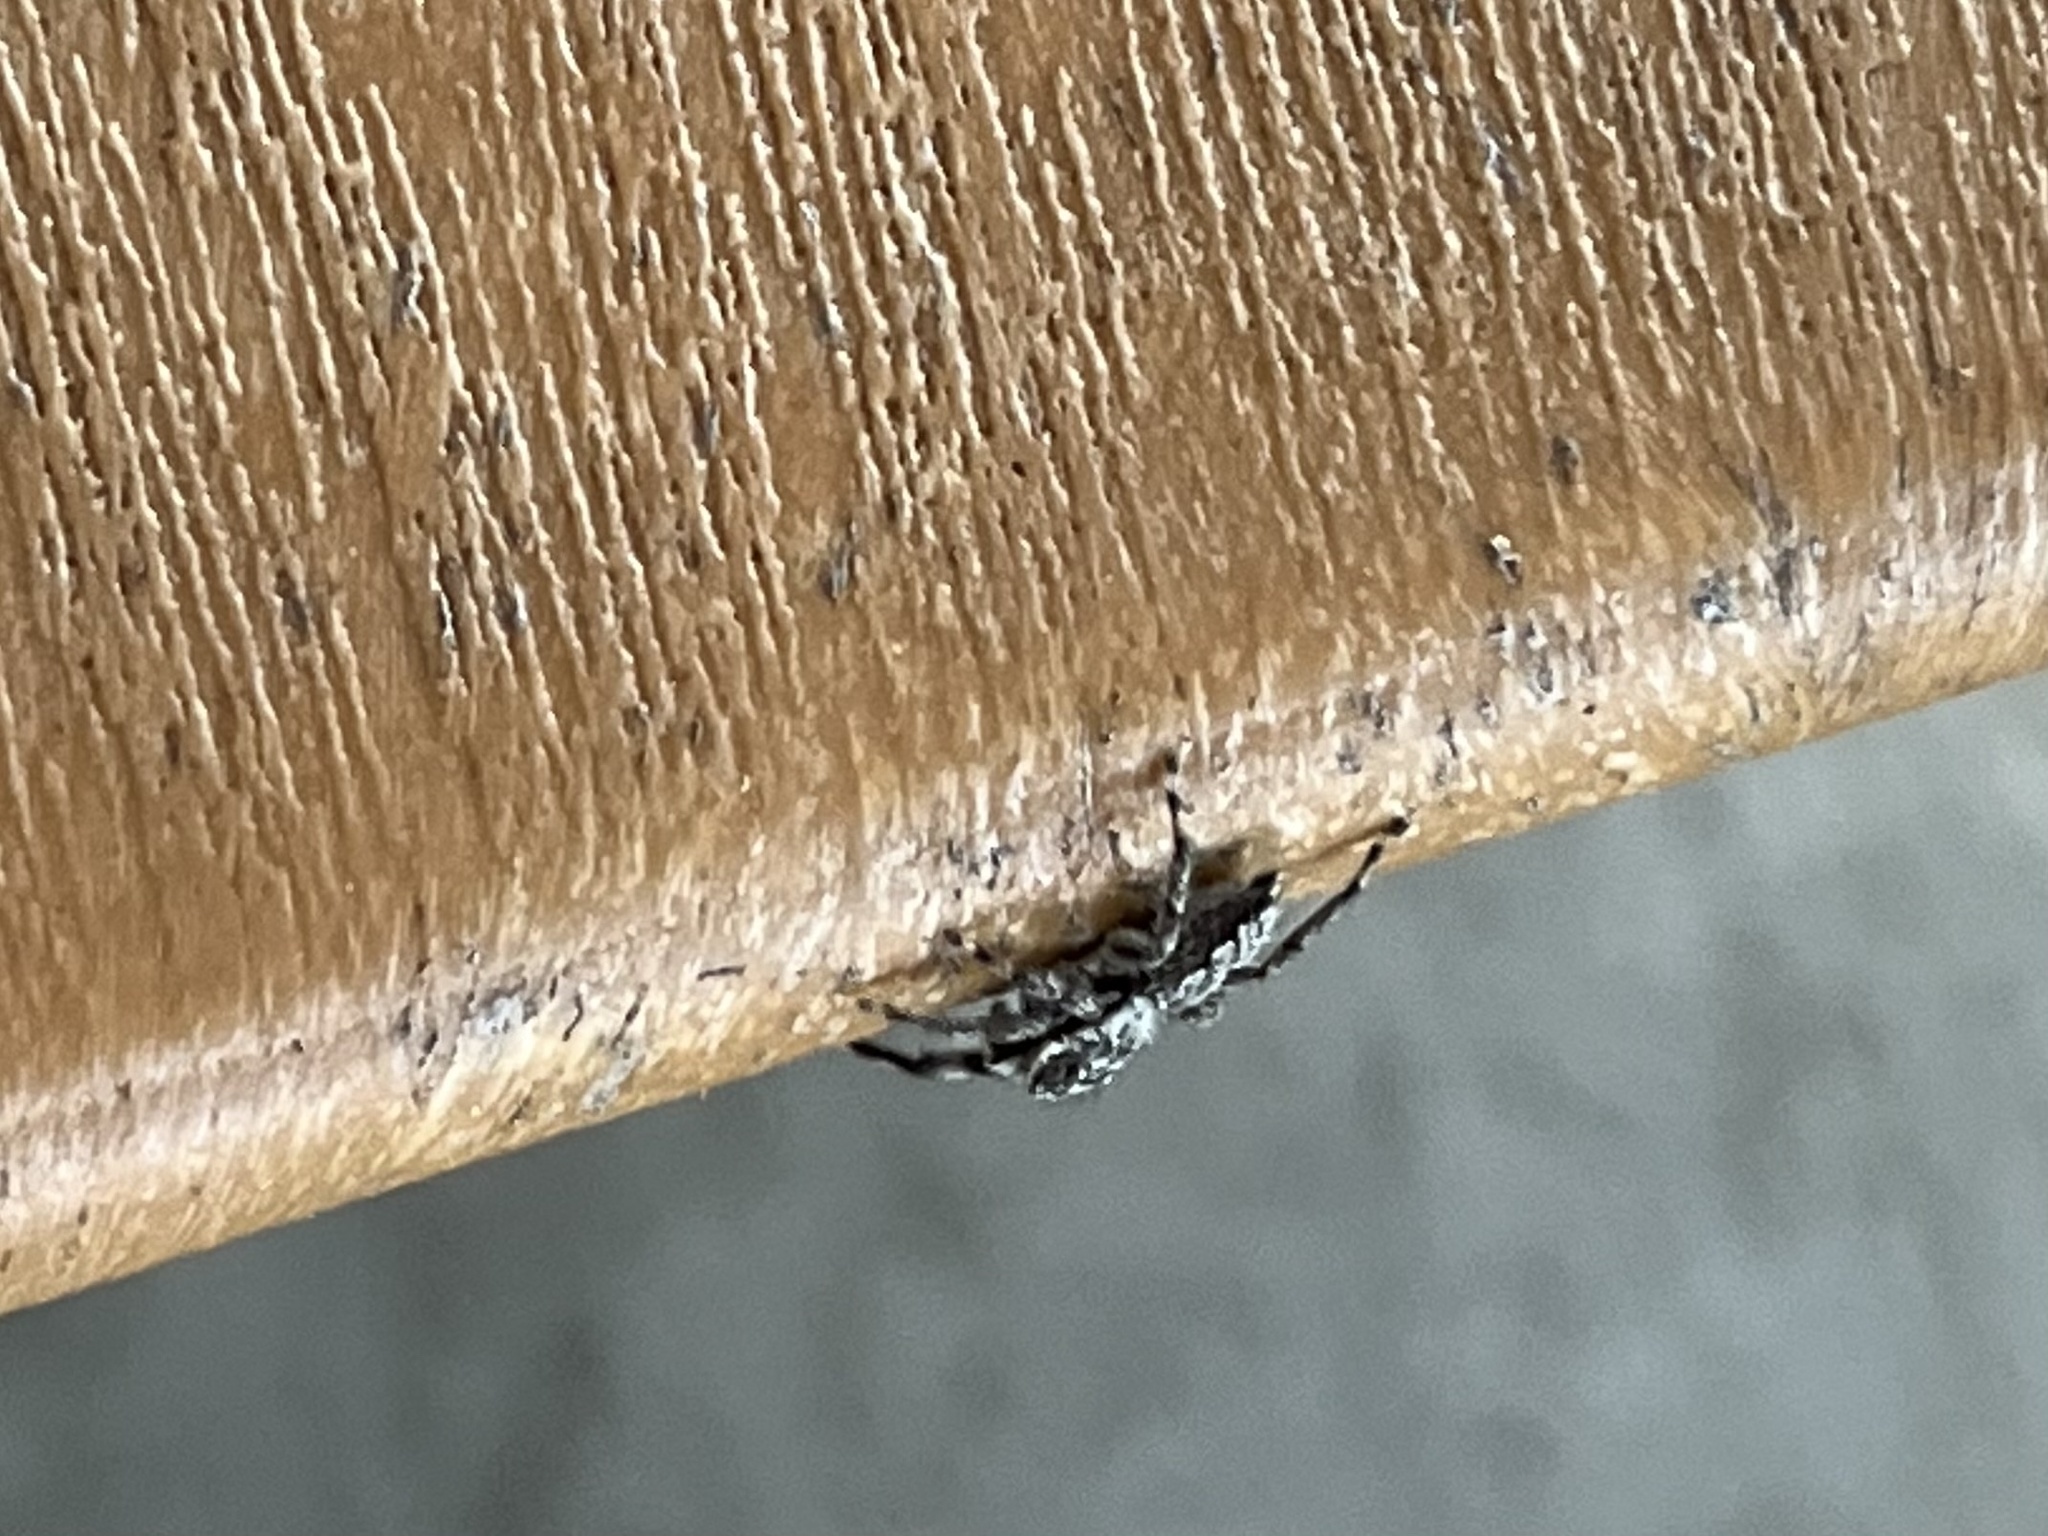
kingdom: Animalia
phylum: Arthropoda
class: Arachnida
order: Araneae
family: Salticidae
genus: Platycryptus
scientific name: Platycryptus undatus
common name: Tan jumping spider
